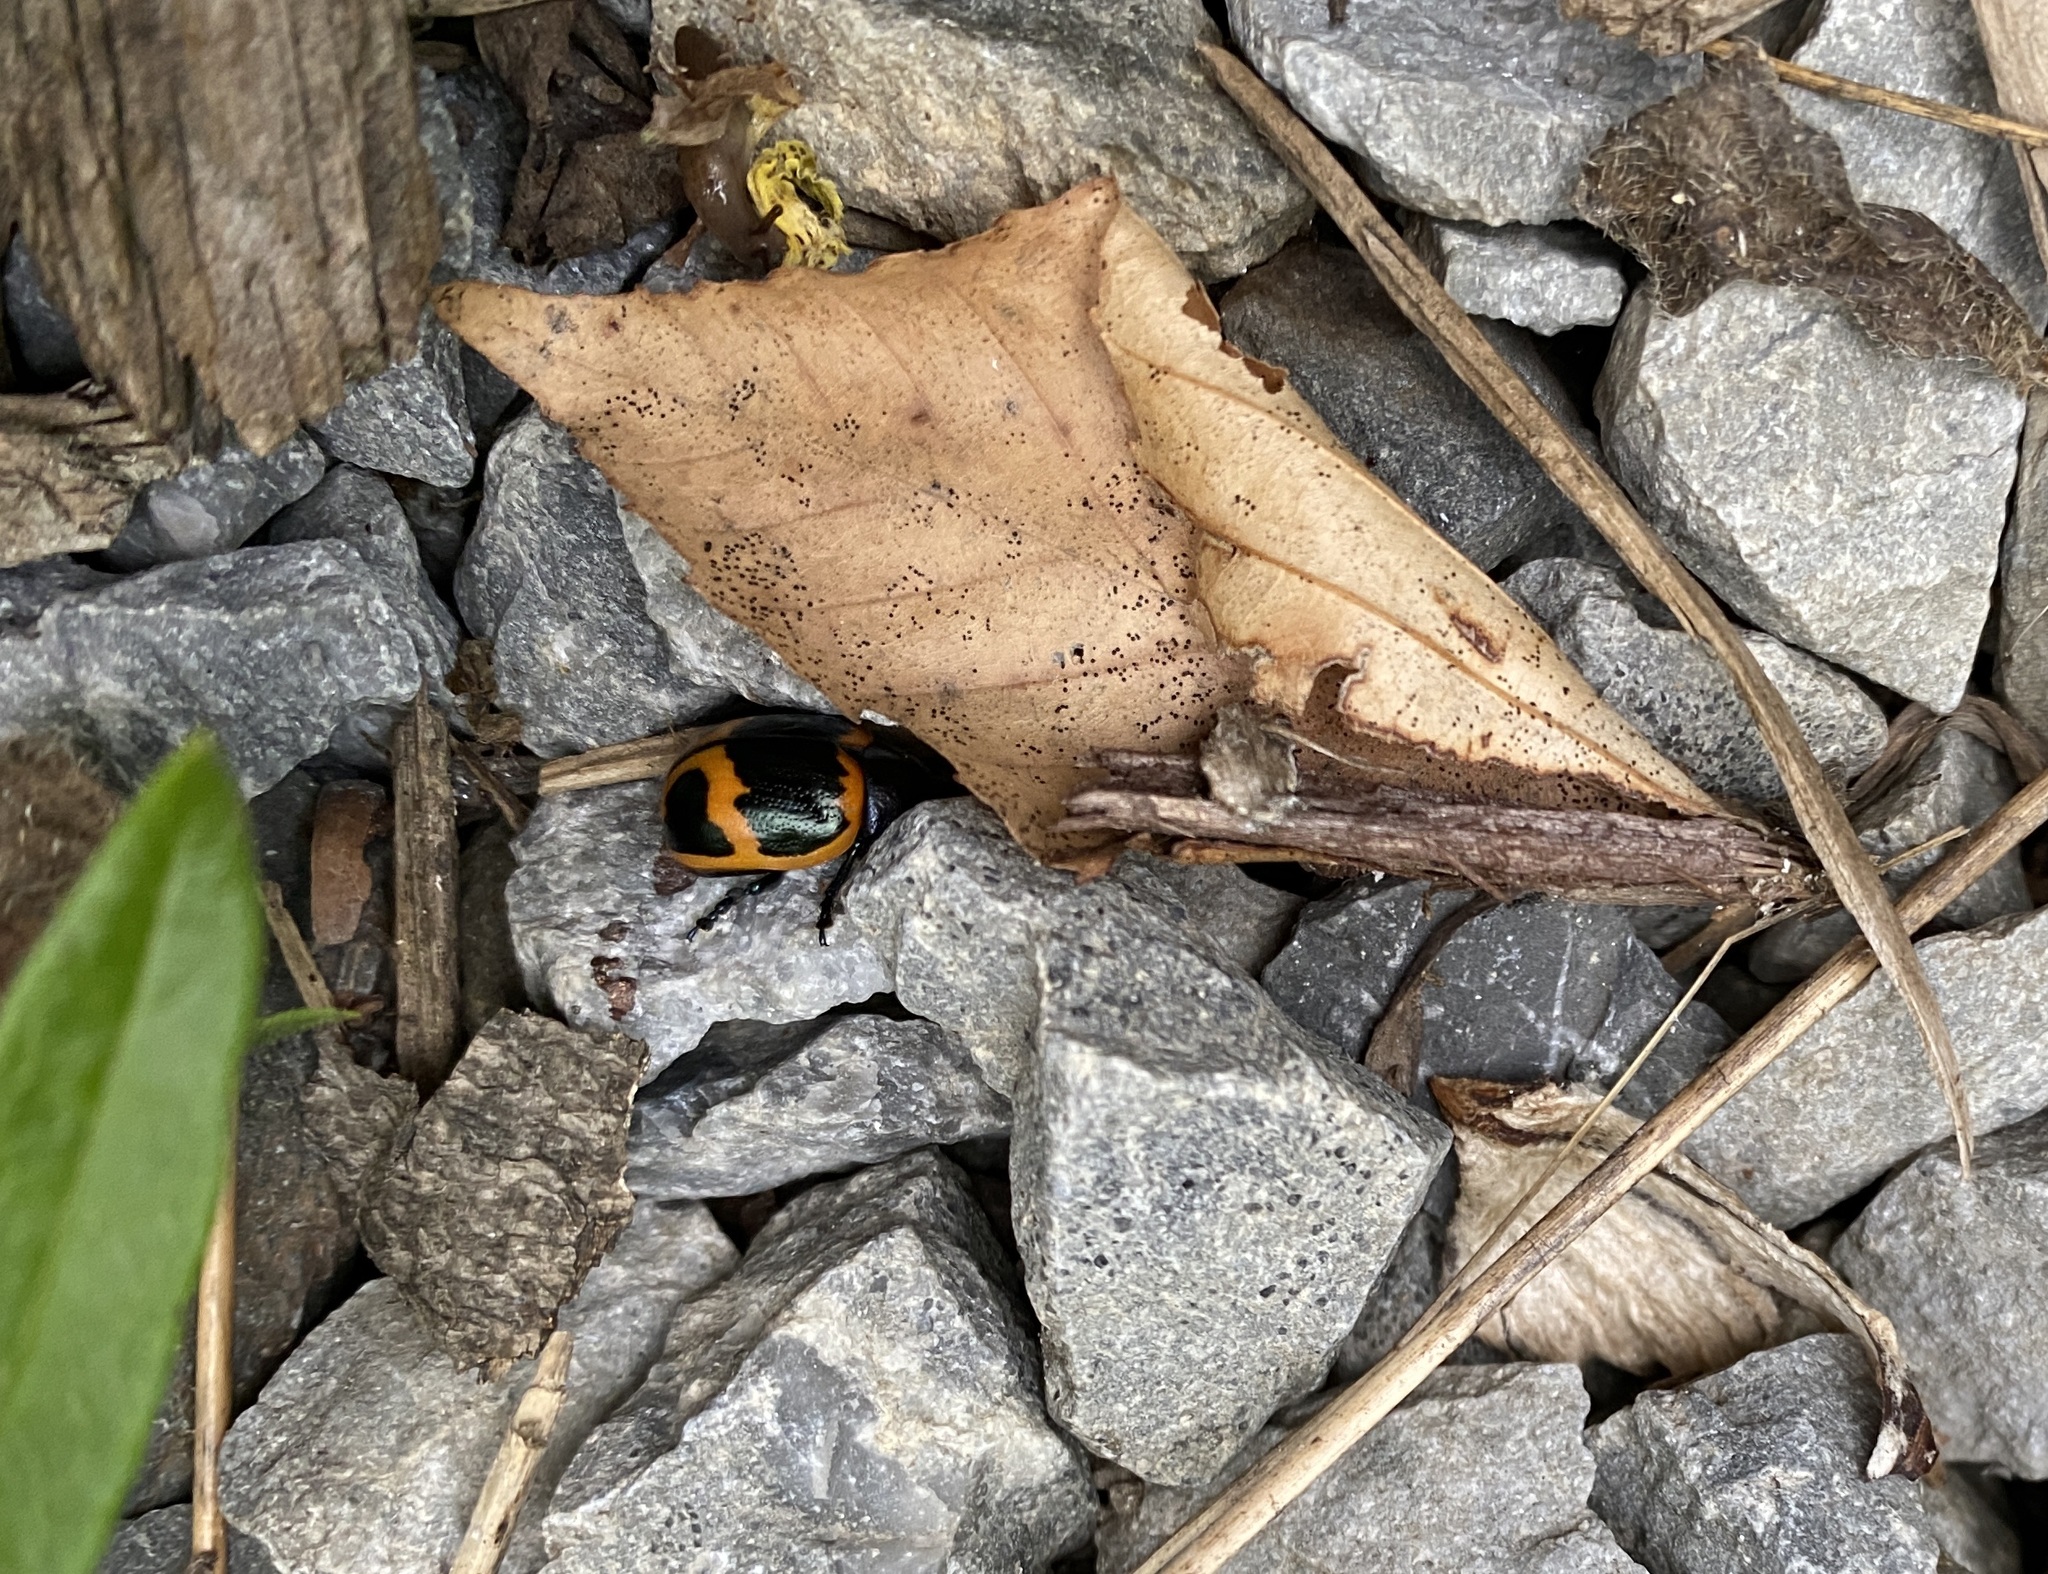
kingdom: Animalia
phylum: Arthropoda
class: Insecta
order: Coleoptera
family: Chrysomelidae
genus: Labidomera
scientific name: Labidomera clivicollis
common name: Swamp milkweed leaf beetle
